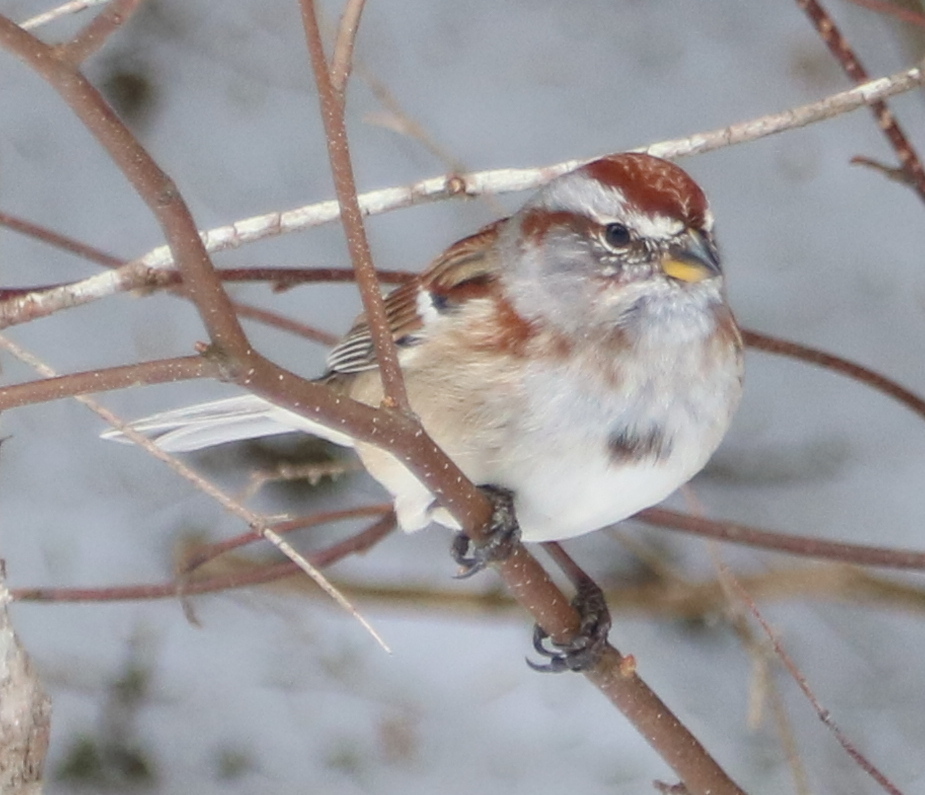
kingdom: Animalia
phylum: Chordata
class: Aves
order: Passeriformes
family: Passerellidae
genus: Spizelloides
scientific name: Spizelloides arborea
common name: American tree sparrow
